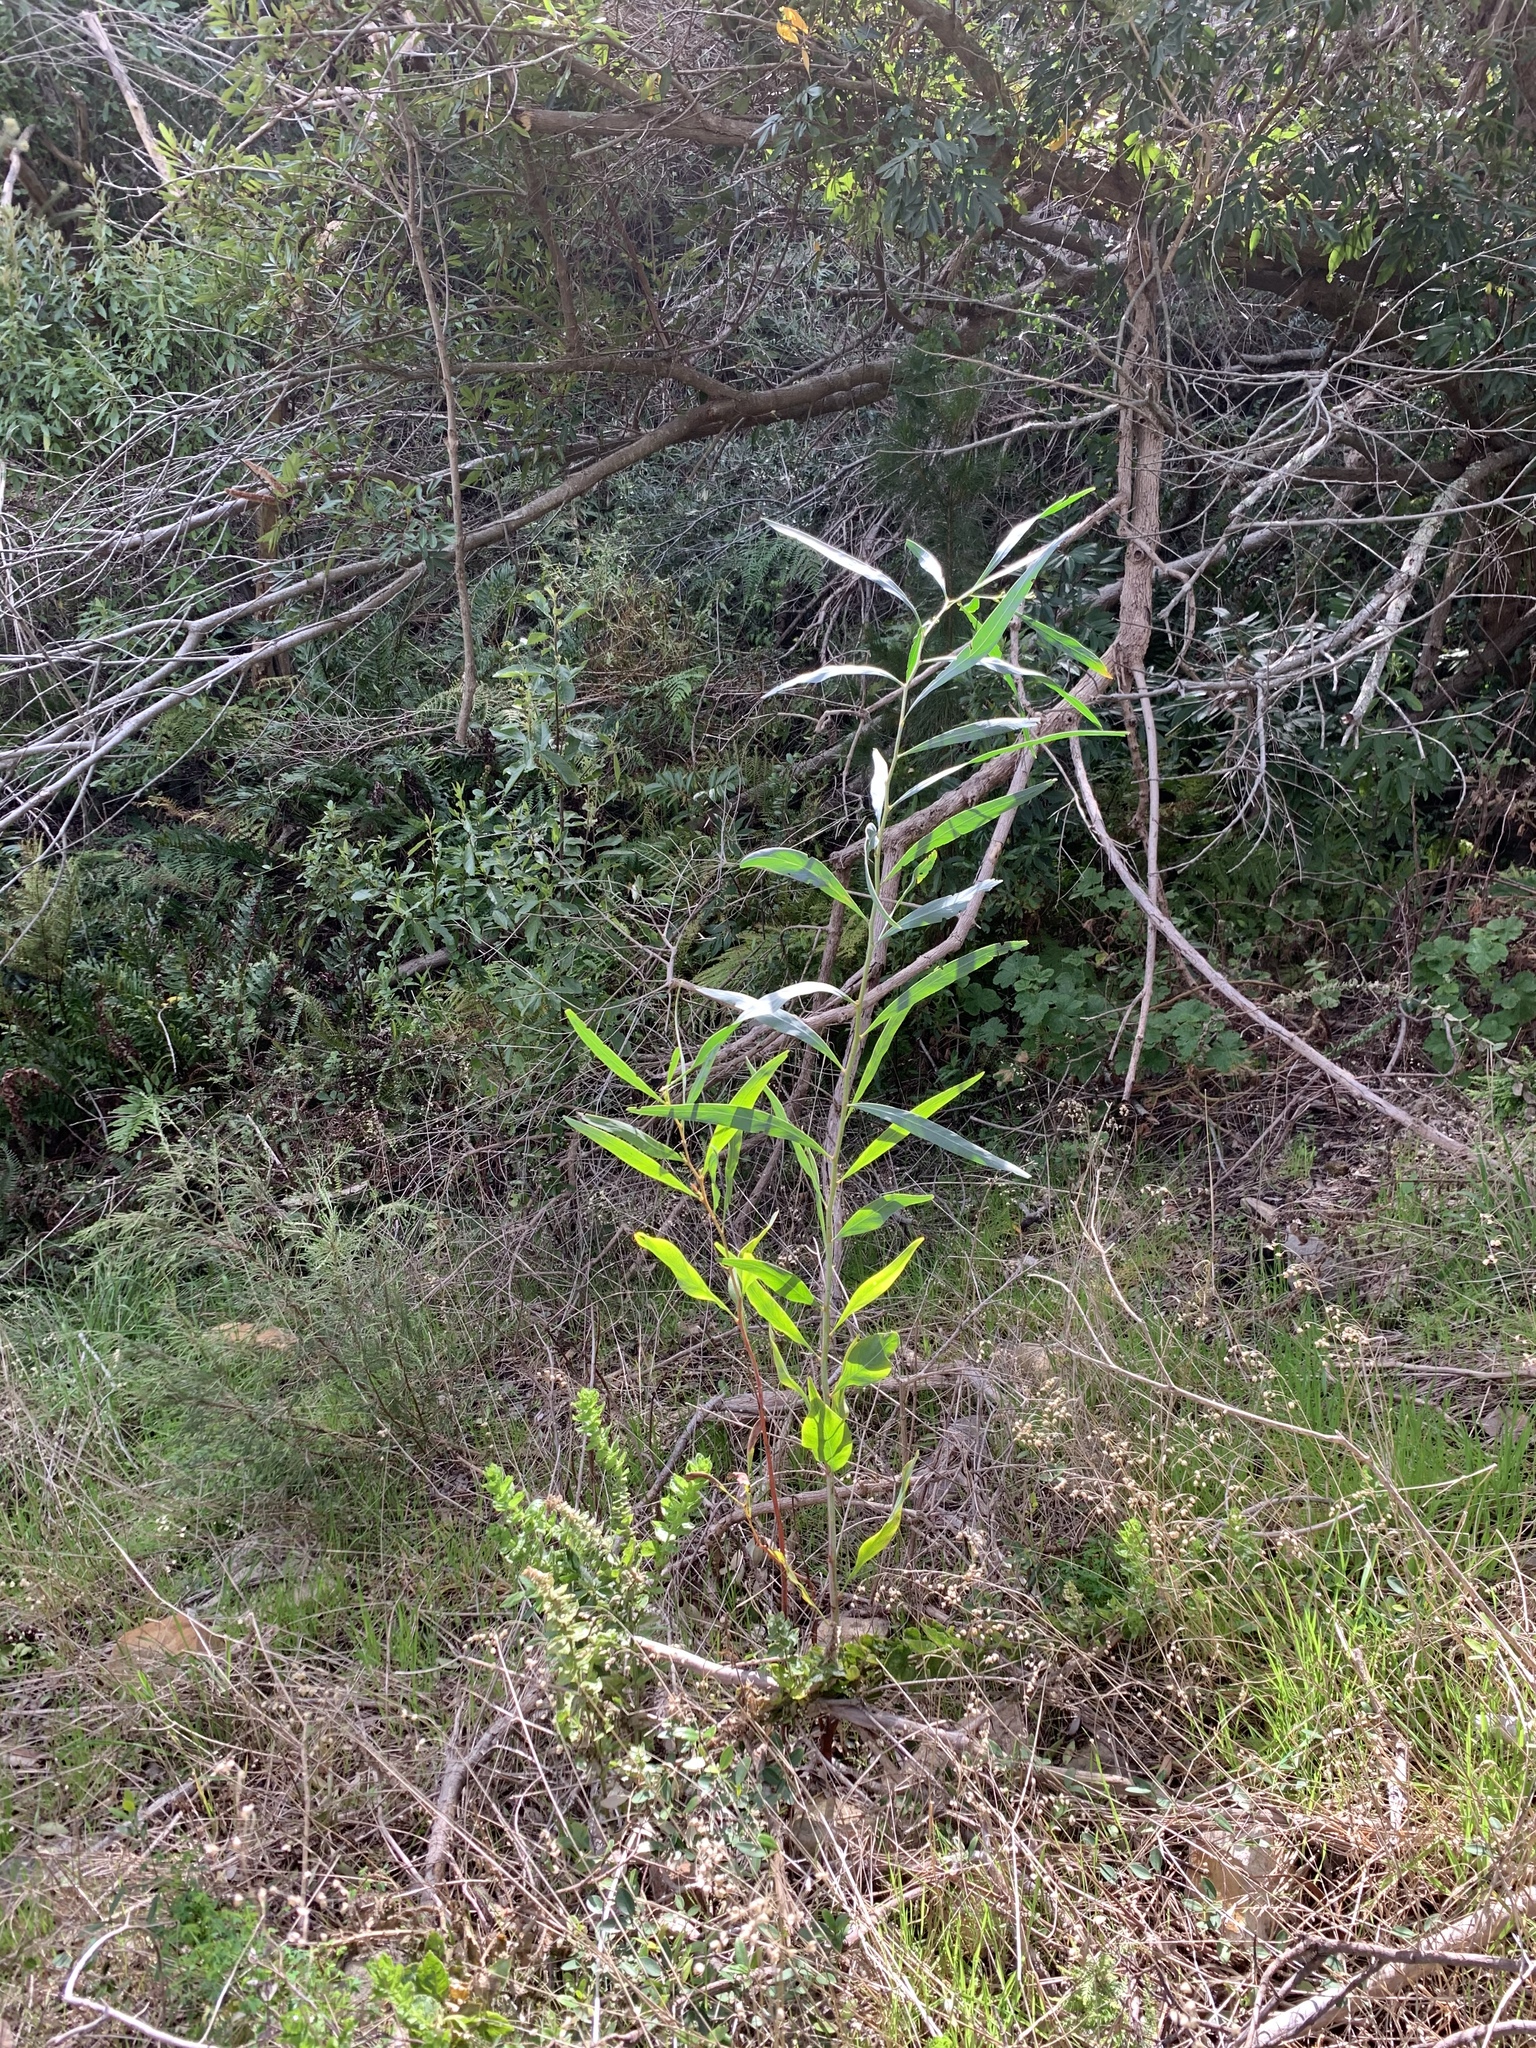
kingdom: Plantae
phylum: Tracheophyta
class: Magnoliopsida
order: Fabales
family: Fabaceae
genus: Acacia
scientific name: Acacia saligna
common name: Orange wattle
